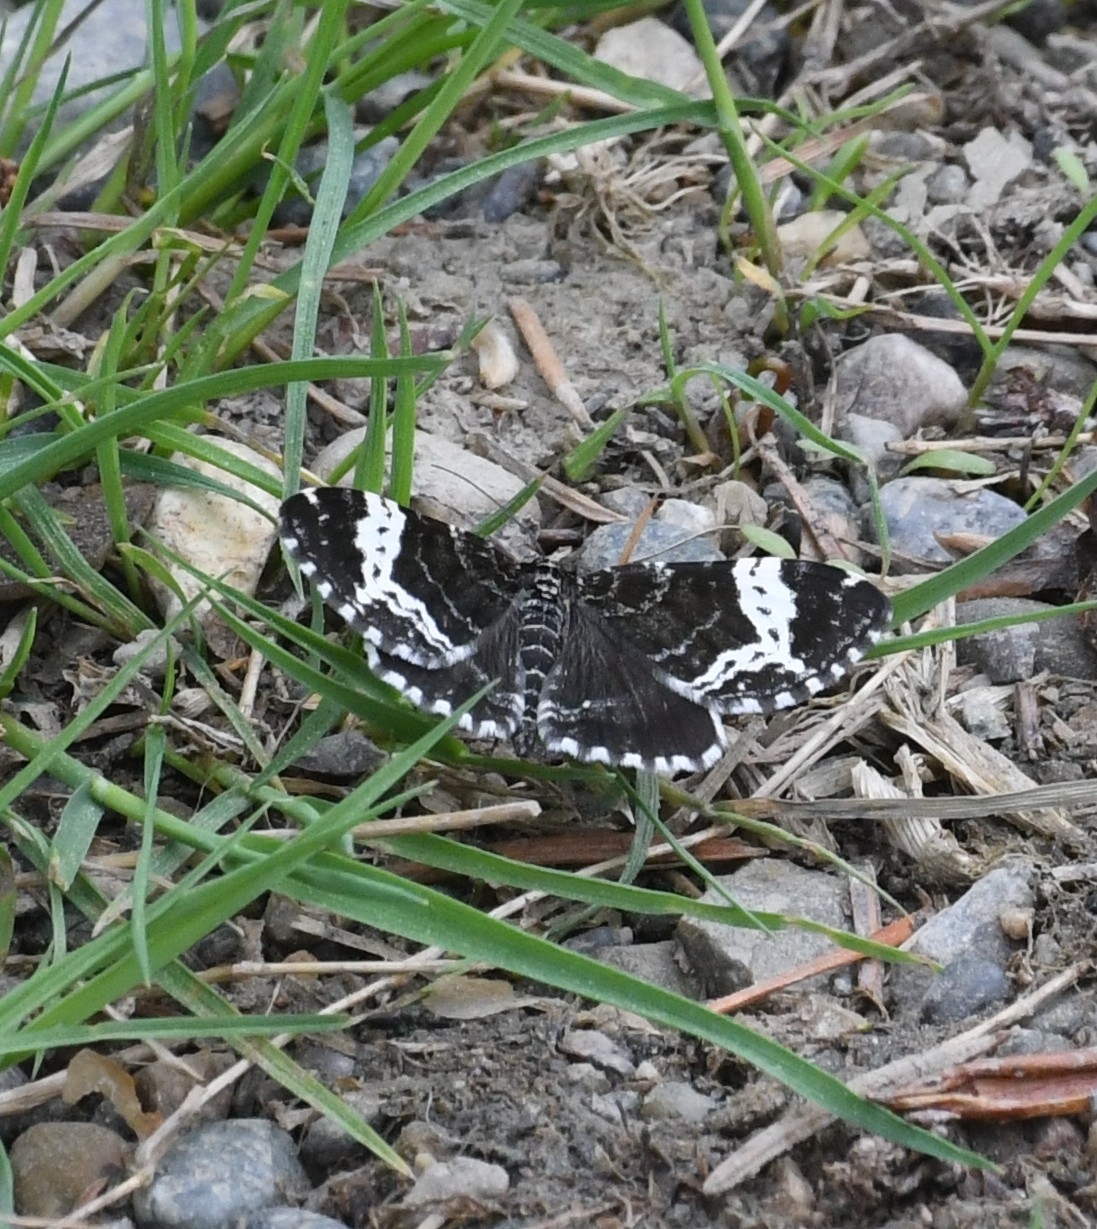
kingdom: Animalia
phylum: Arthropoda
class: Insecta
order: Lepidoptera
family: Geometridae
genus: Rheumaptera
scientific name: Rheumaptera
